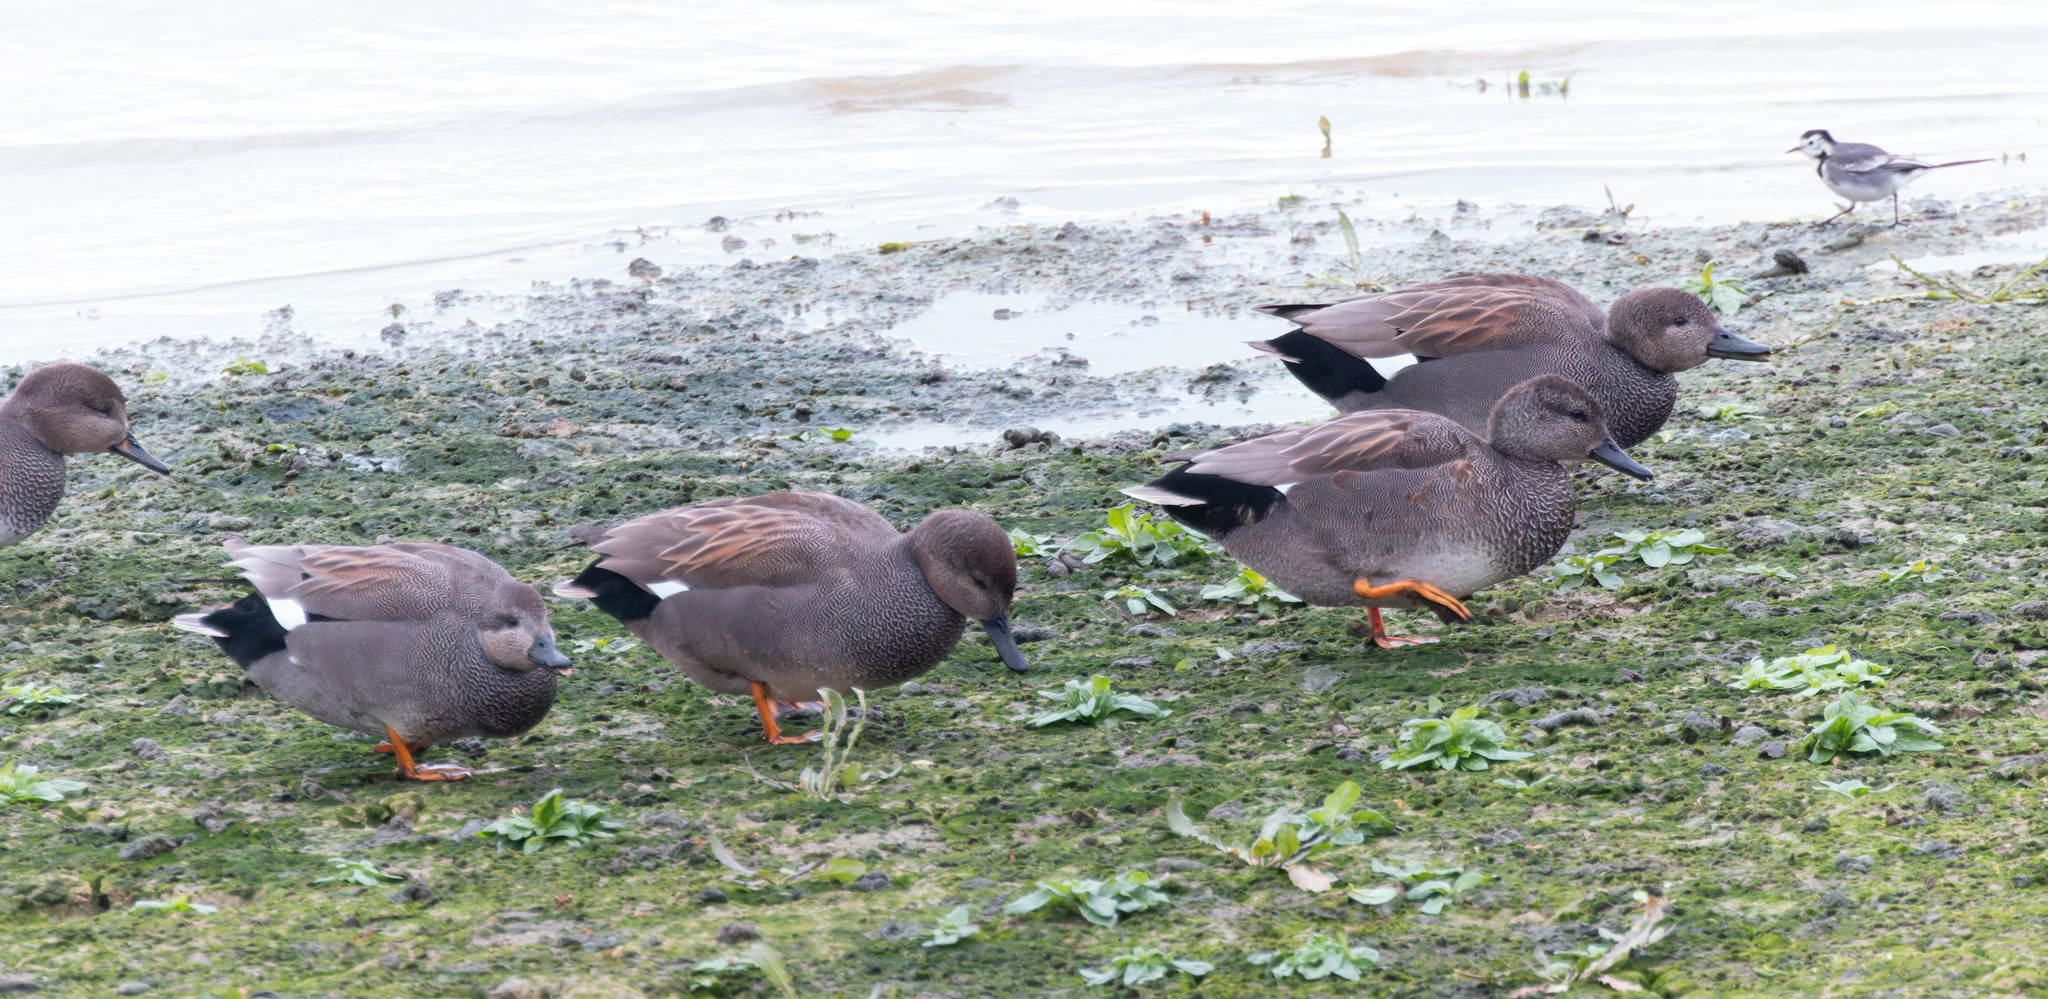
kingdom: Animalia
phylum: Chordata
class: Aves
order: Anseriformes
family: Anatidae
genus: Mareca
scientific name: Mareca strepera
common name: Gadwall
